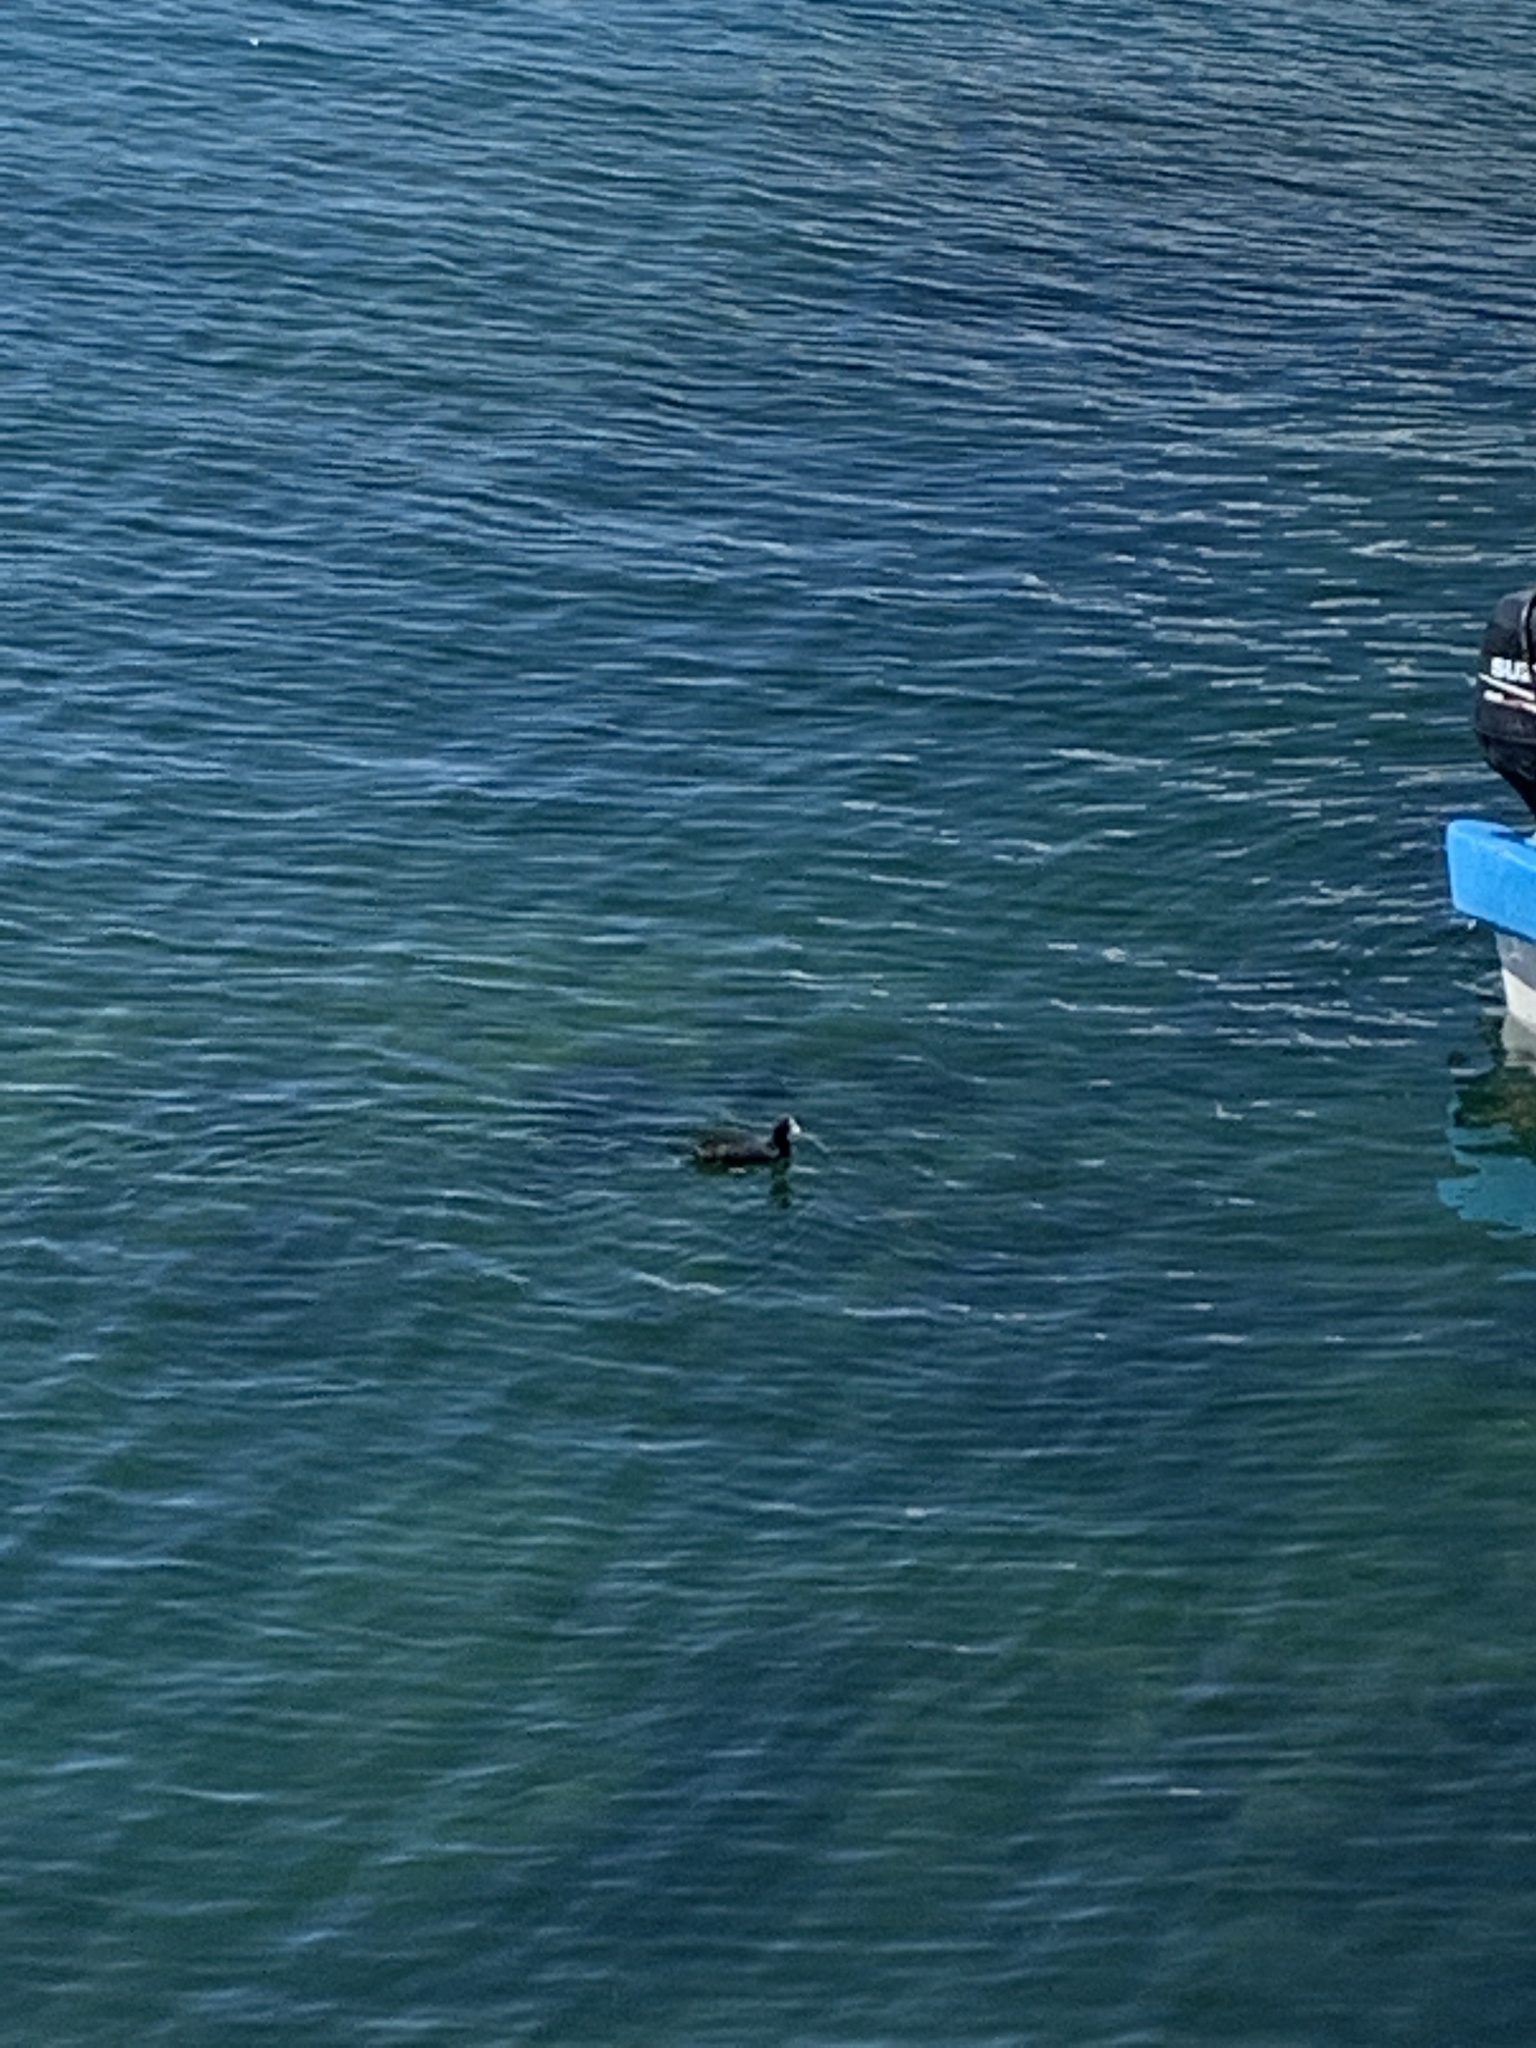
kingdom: Animalia
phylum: Chordata
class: Aves
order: Gruiformes
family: Rallidae
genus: Fulica
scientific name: Fulica americana
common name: American coot
